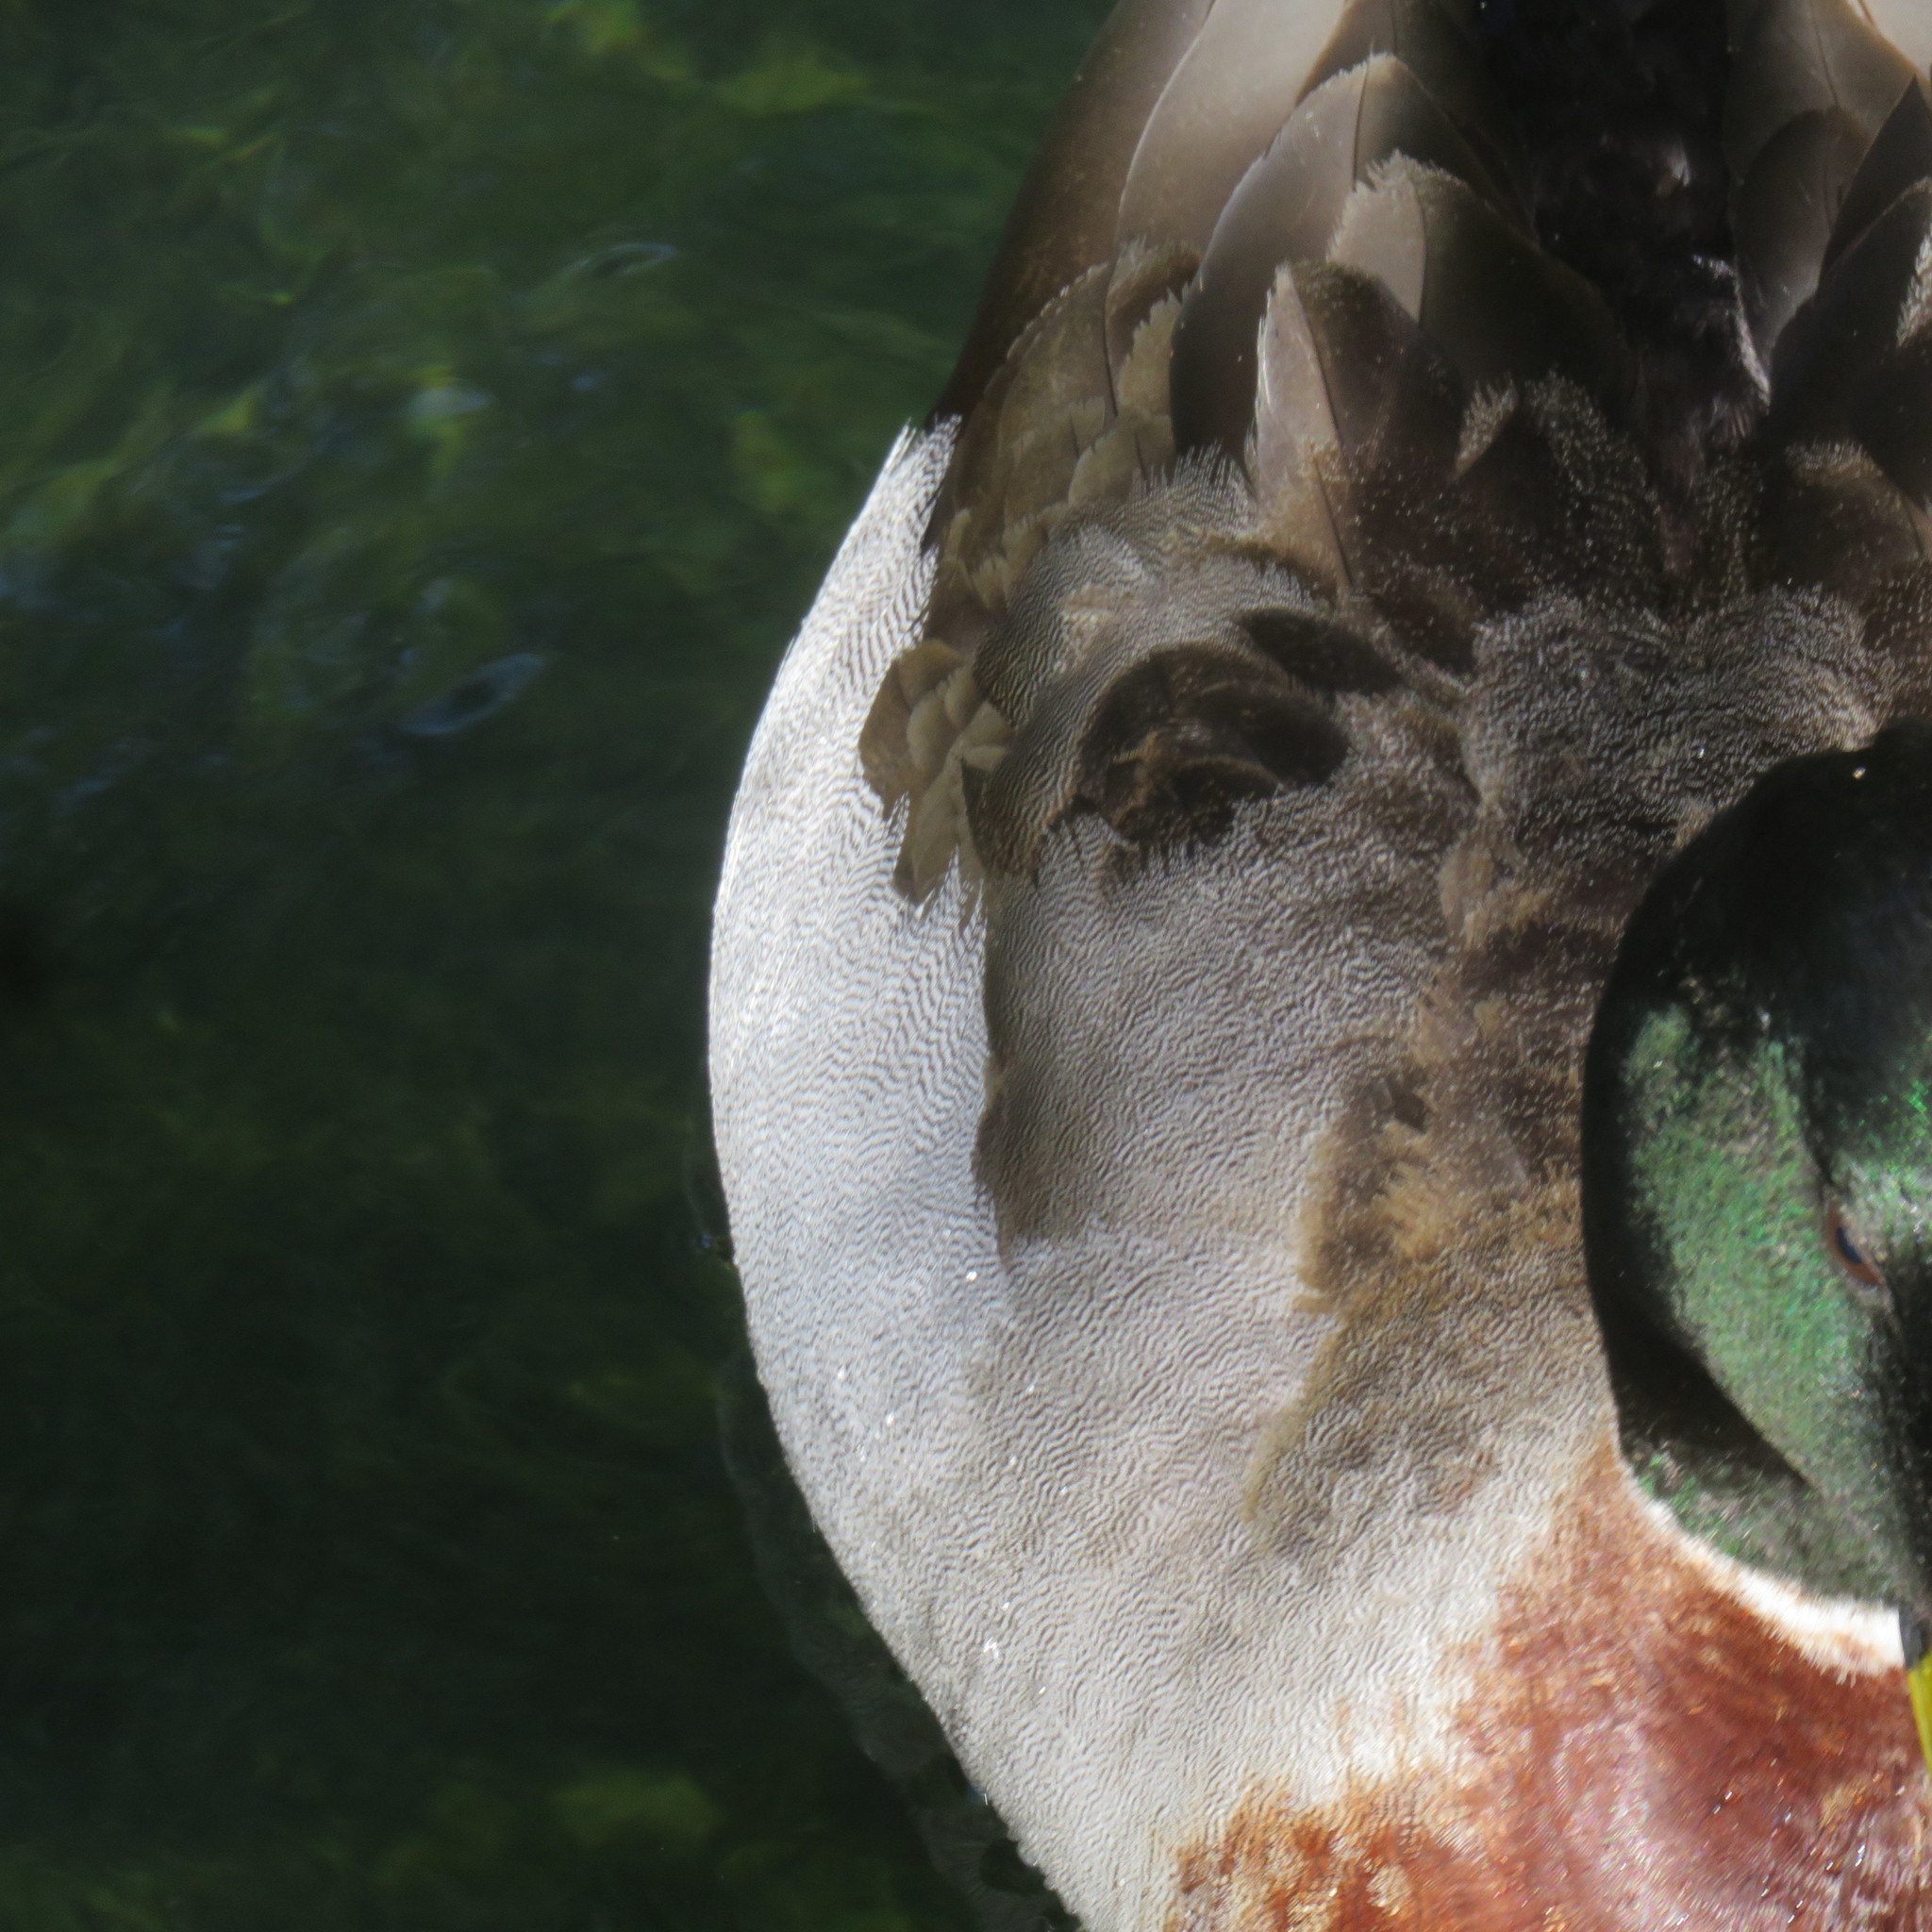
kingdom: Animalia
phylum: Chordata
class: Aves
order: Anseriformes
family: Anatidae
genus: Anas
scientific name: Anas platyrhynchos
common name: Mallard
